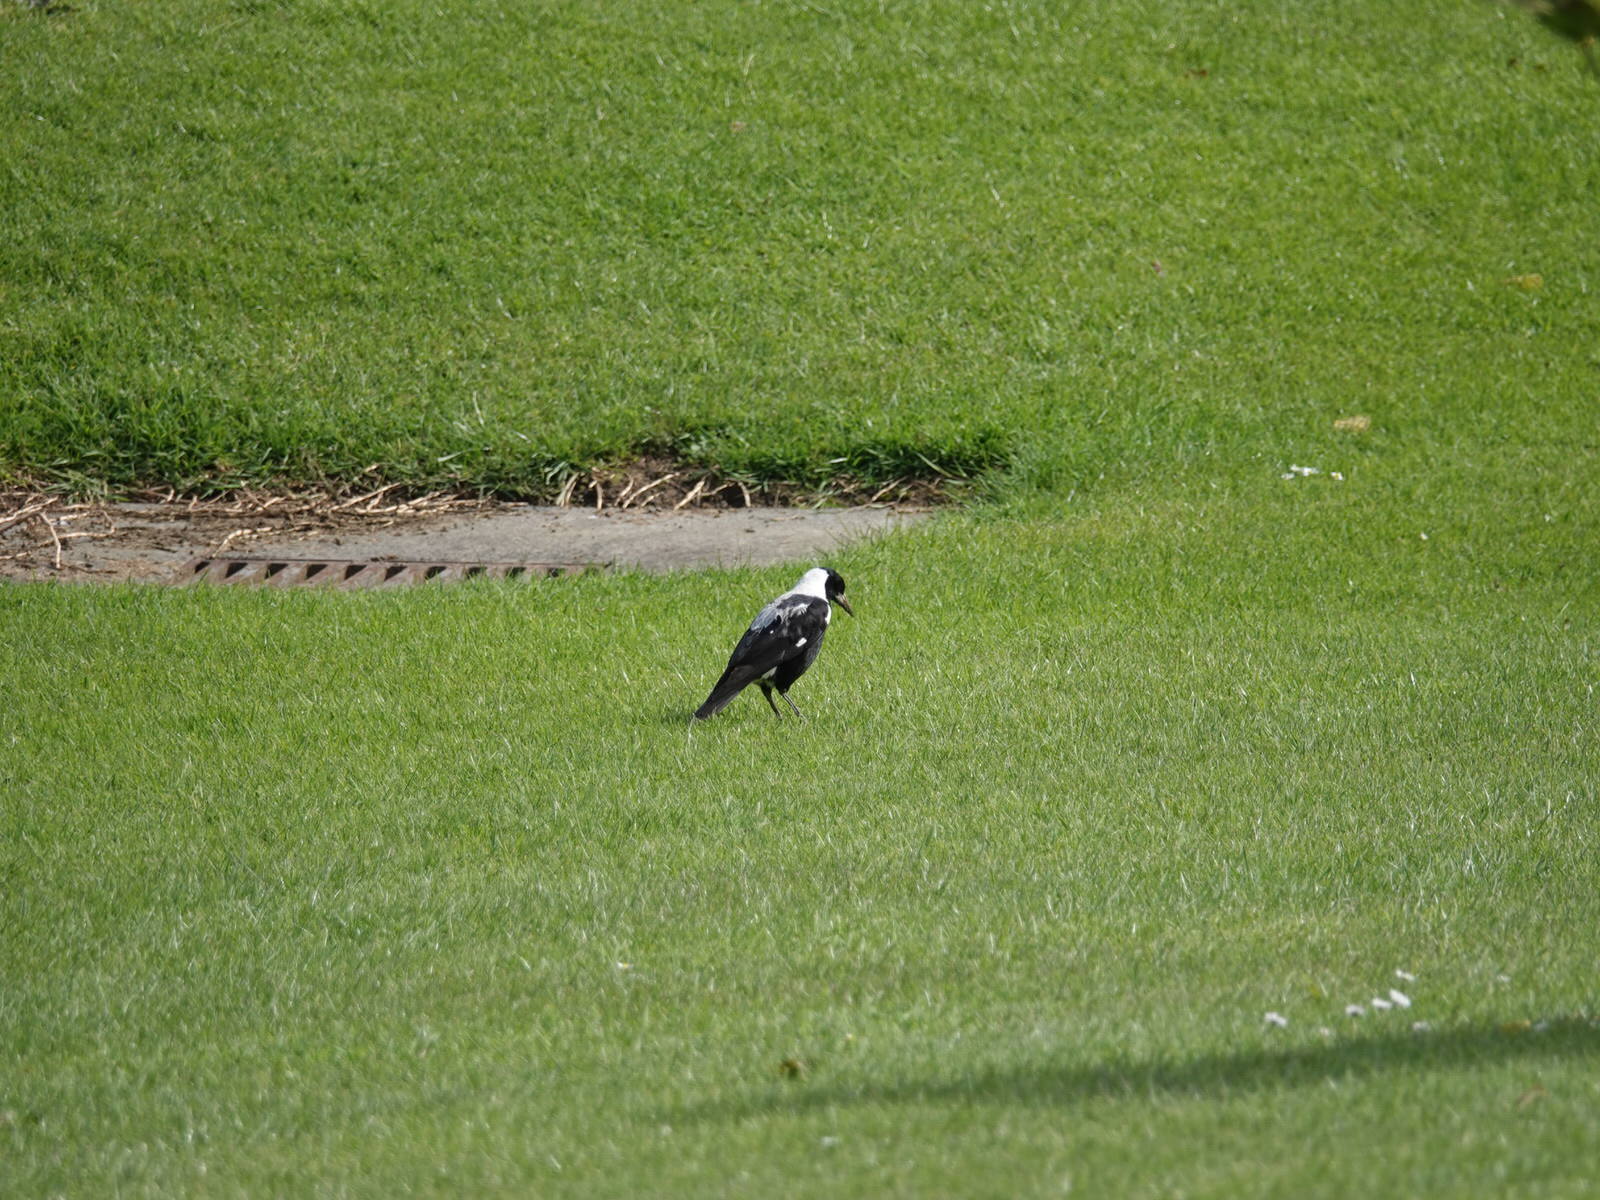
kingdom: Animalia
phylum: Chordata
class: Aves
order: Passeriformes
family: Cracticidae
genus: Gymnorhina
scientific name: Gymnorhina tibicen
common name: Australian magpie
